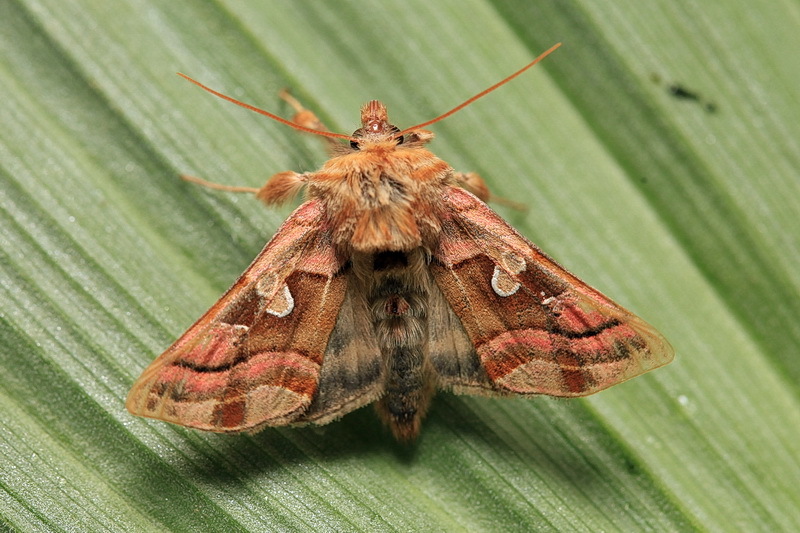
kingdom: Animalia
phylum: Arthropoda
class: Insecta
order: Lepidoptera
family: Noctuidae
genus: Euchalcia
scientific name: Euchalcia renardi
